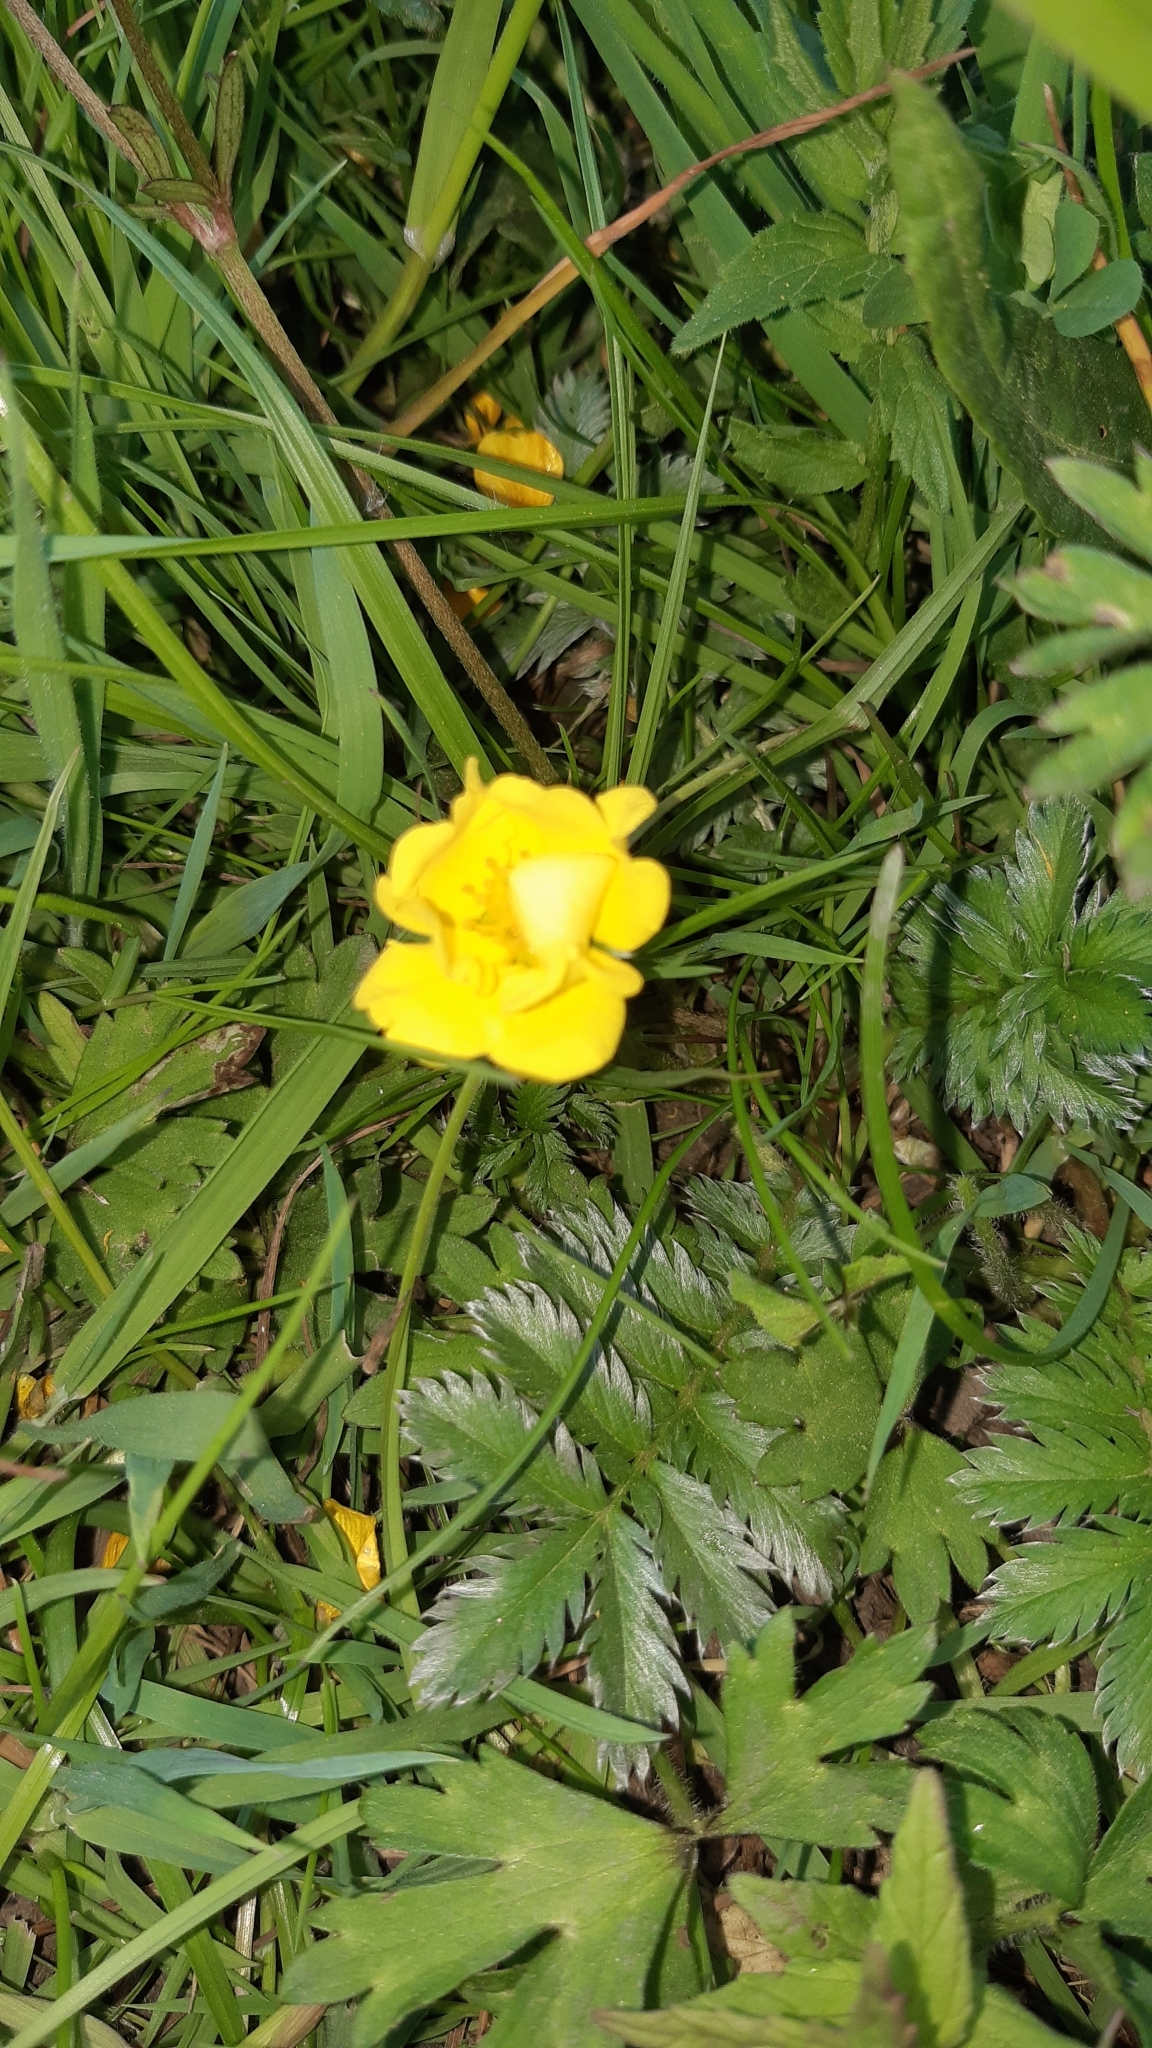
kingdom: Plantae
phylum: Tracheophyta
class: Magnoliopsida
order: Rosales
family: Rosaceae
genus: Argentina
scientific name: Argentina anserina
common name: Common silverweed
